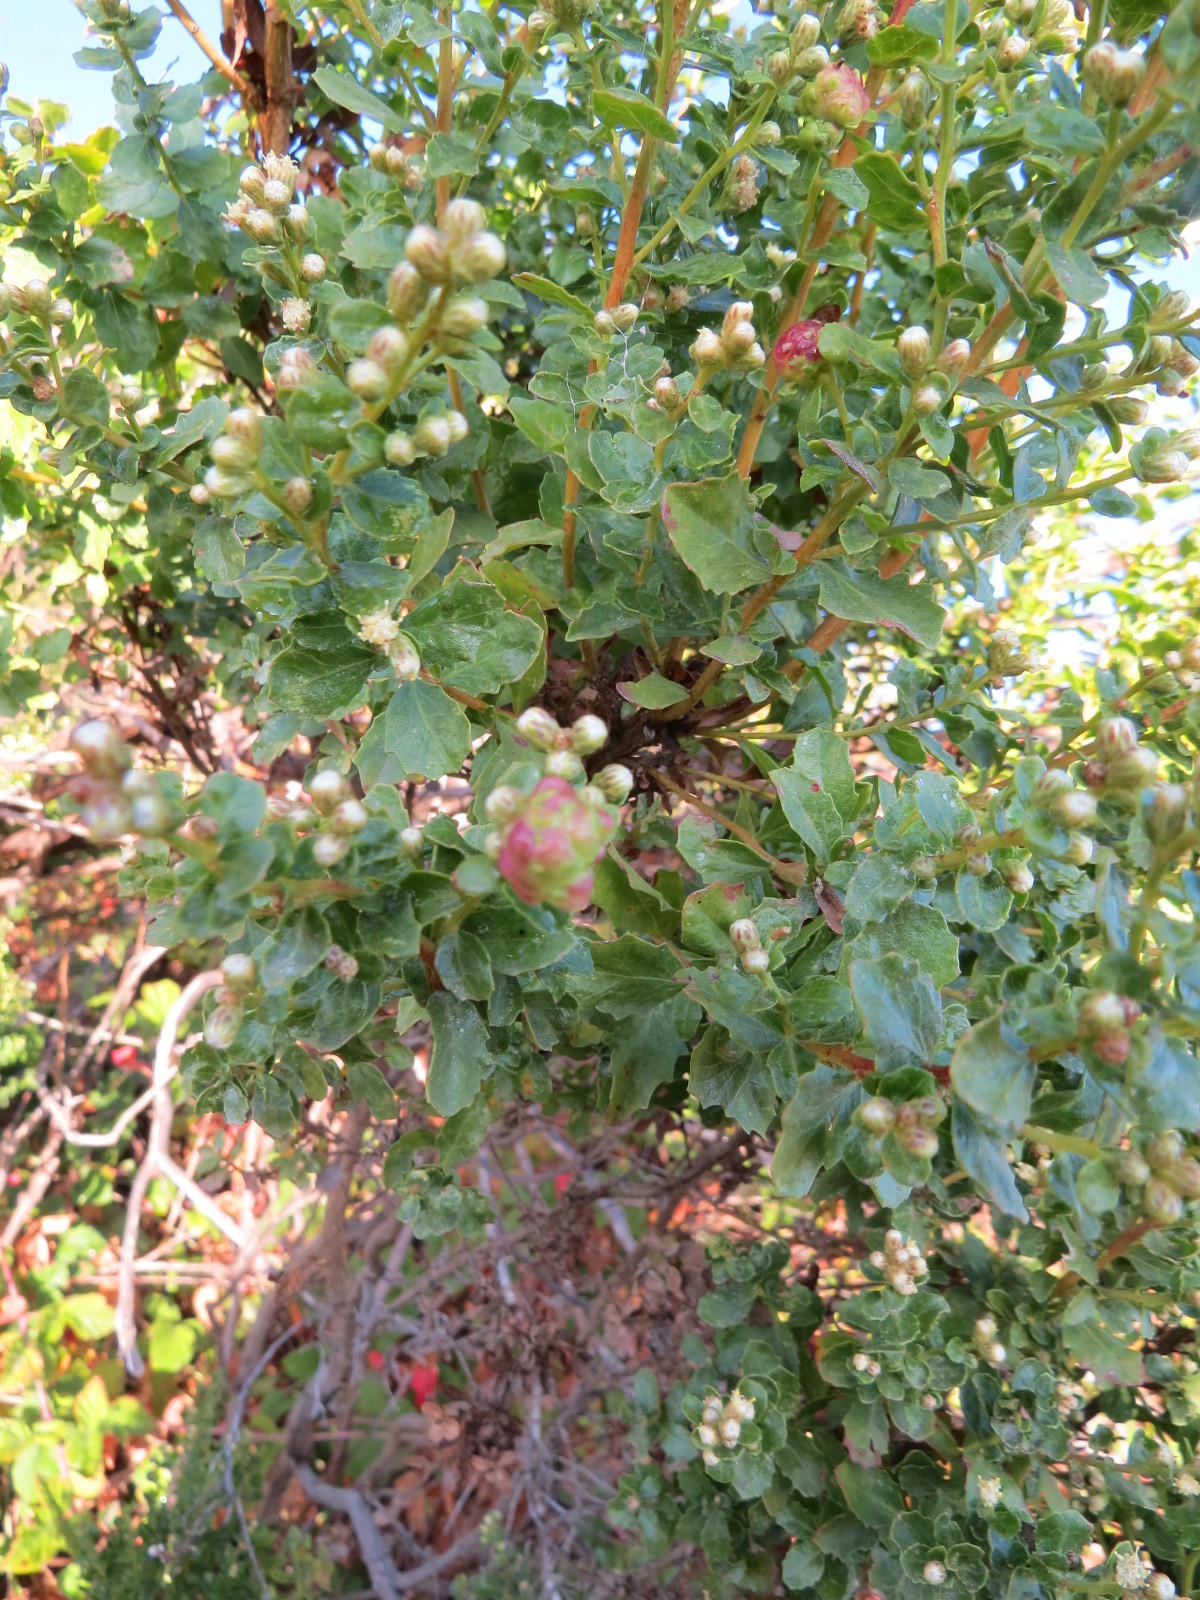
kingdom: Animalia
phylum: Arthropoda
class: Insecta
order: Diptera
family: Cecidomyiidae
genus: Rhopalomyia
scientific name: Rhopalomyia californica
